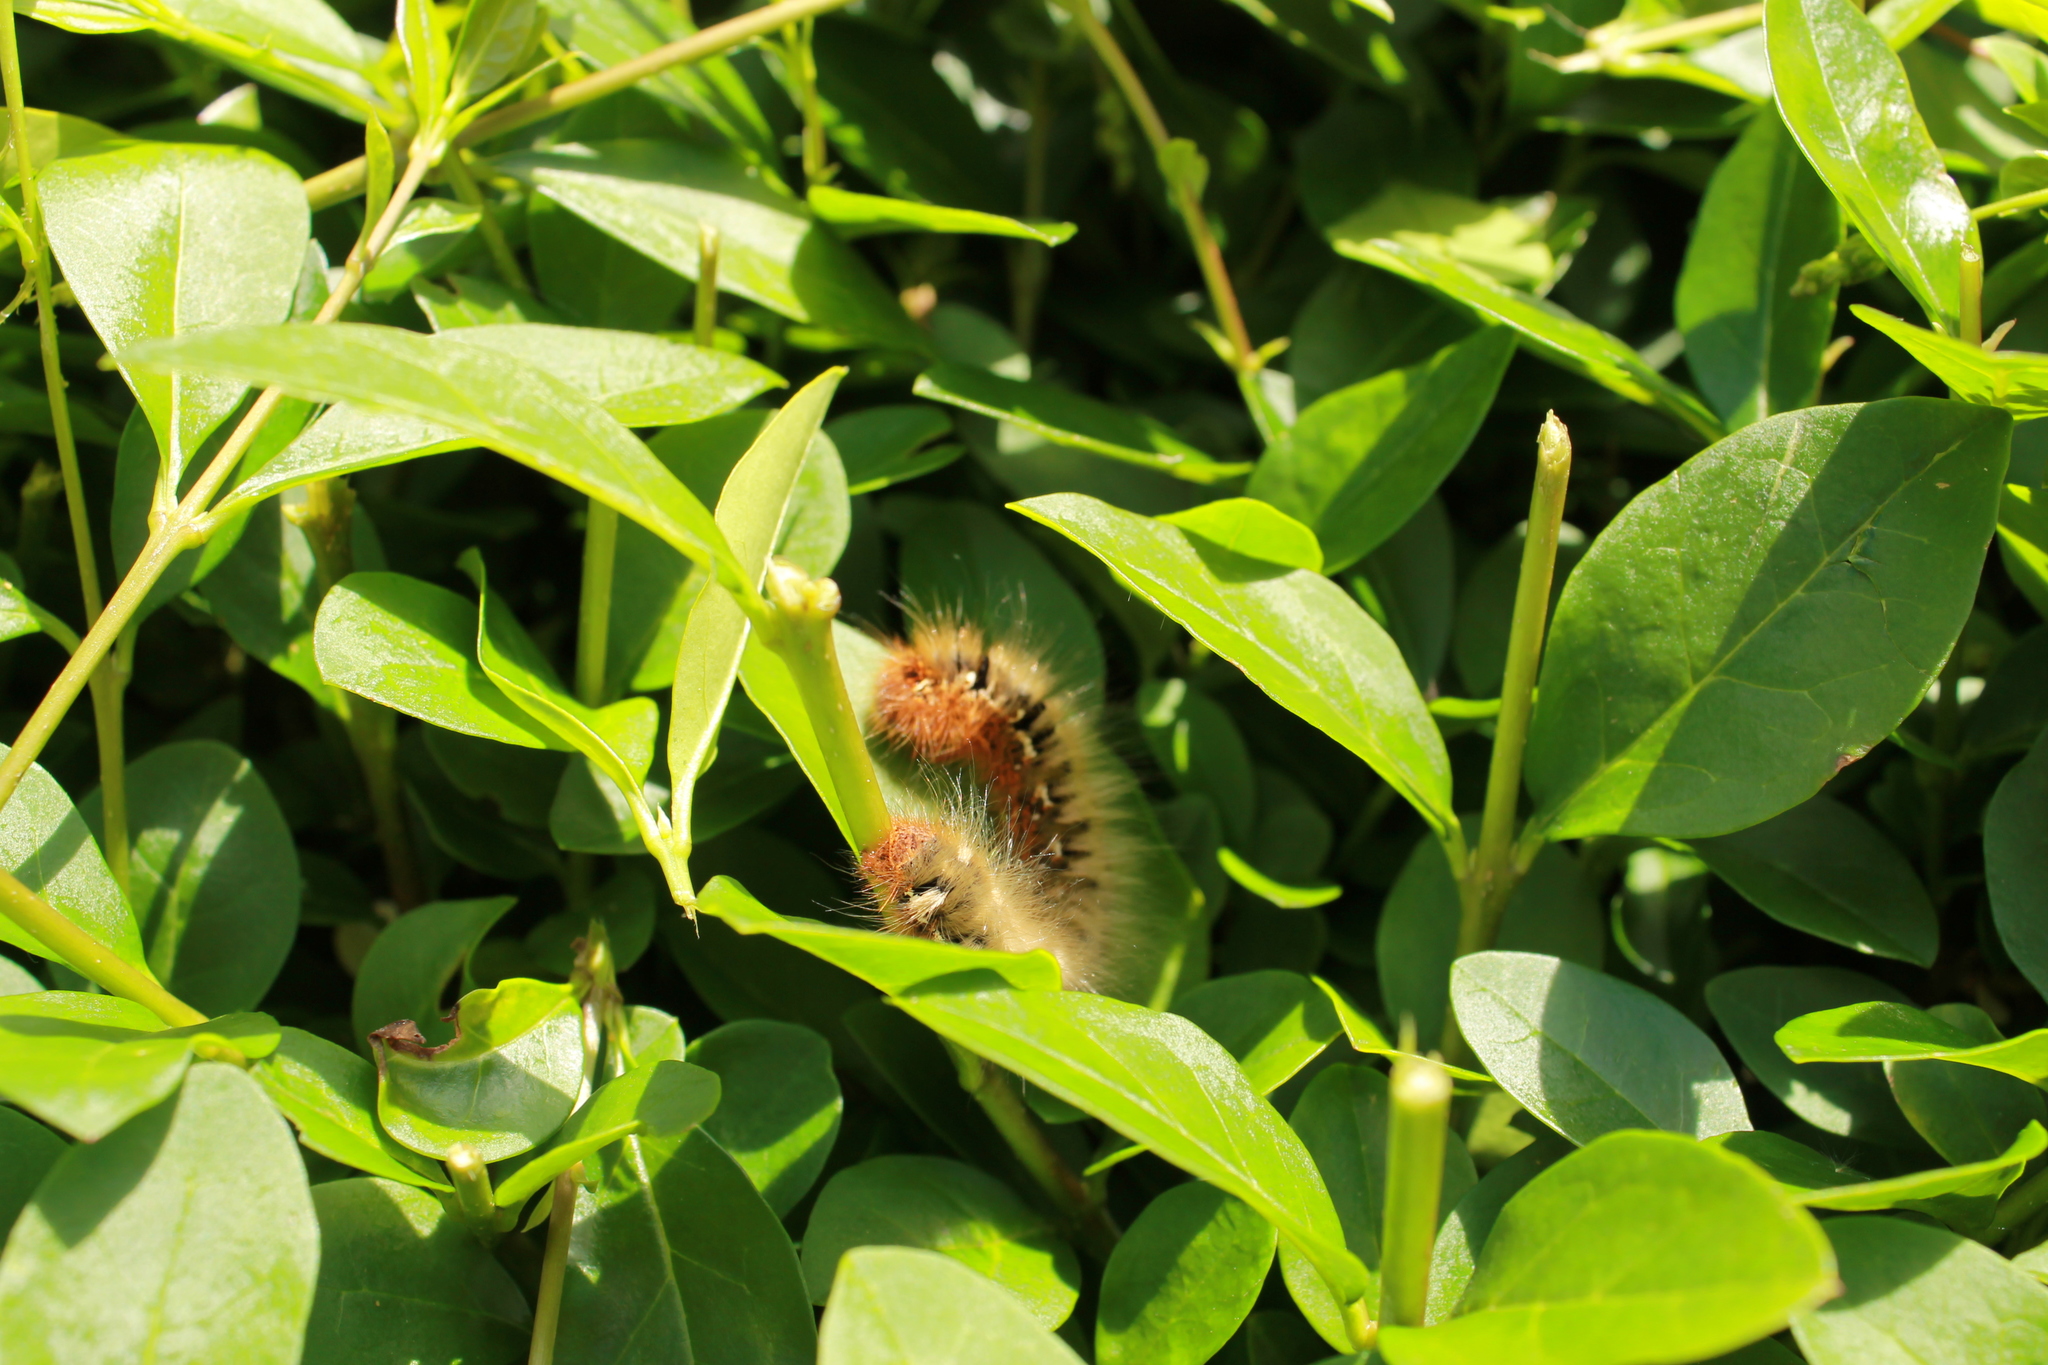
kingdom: Animalia
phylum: Arthropoda
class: Insecta
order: Lepidoptera
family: Lasiocampidae
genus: Lasiocampa
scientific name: Lasiocampa quercus
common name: Oak eggar
